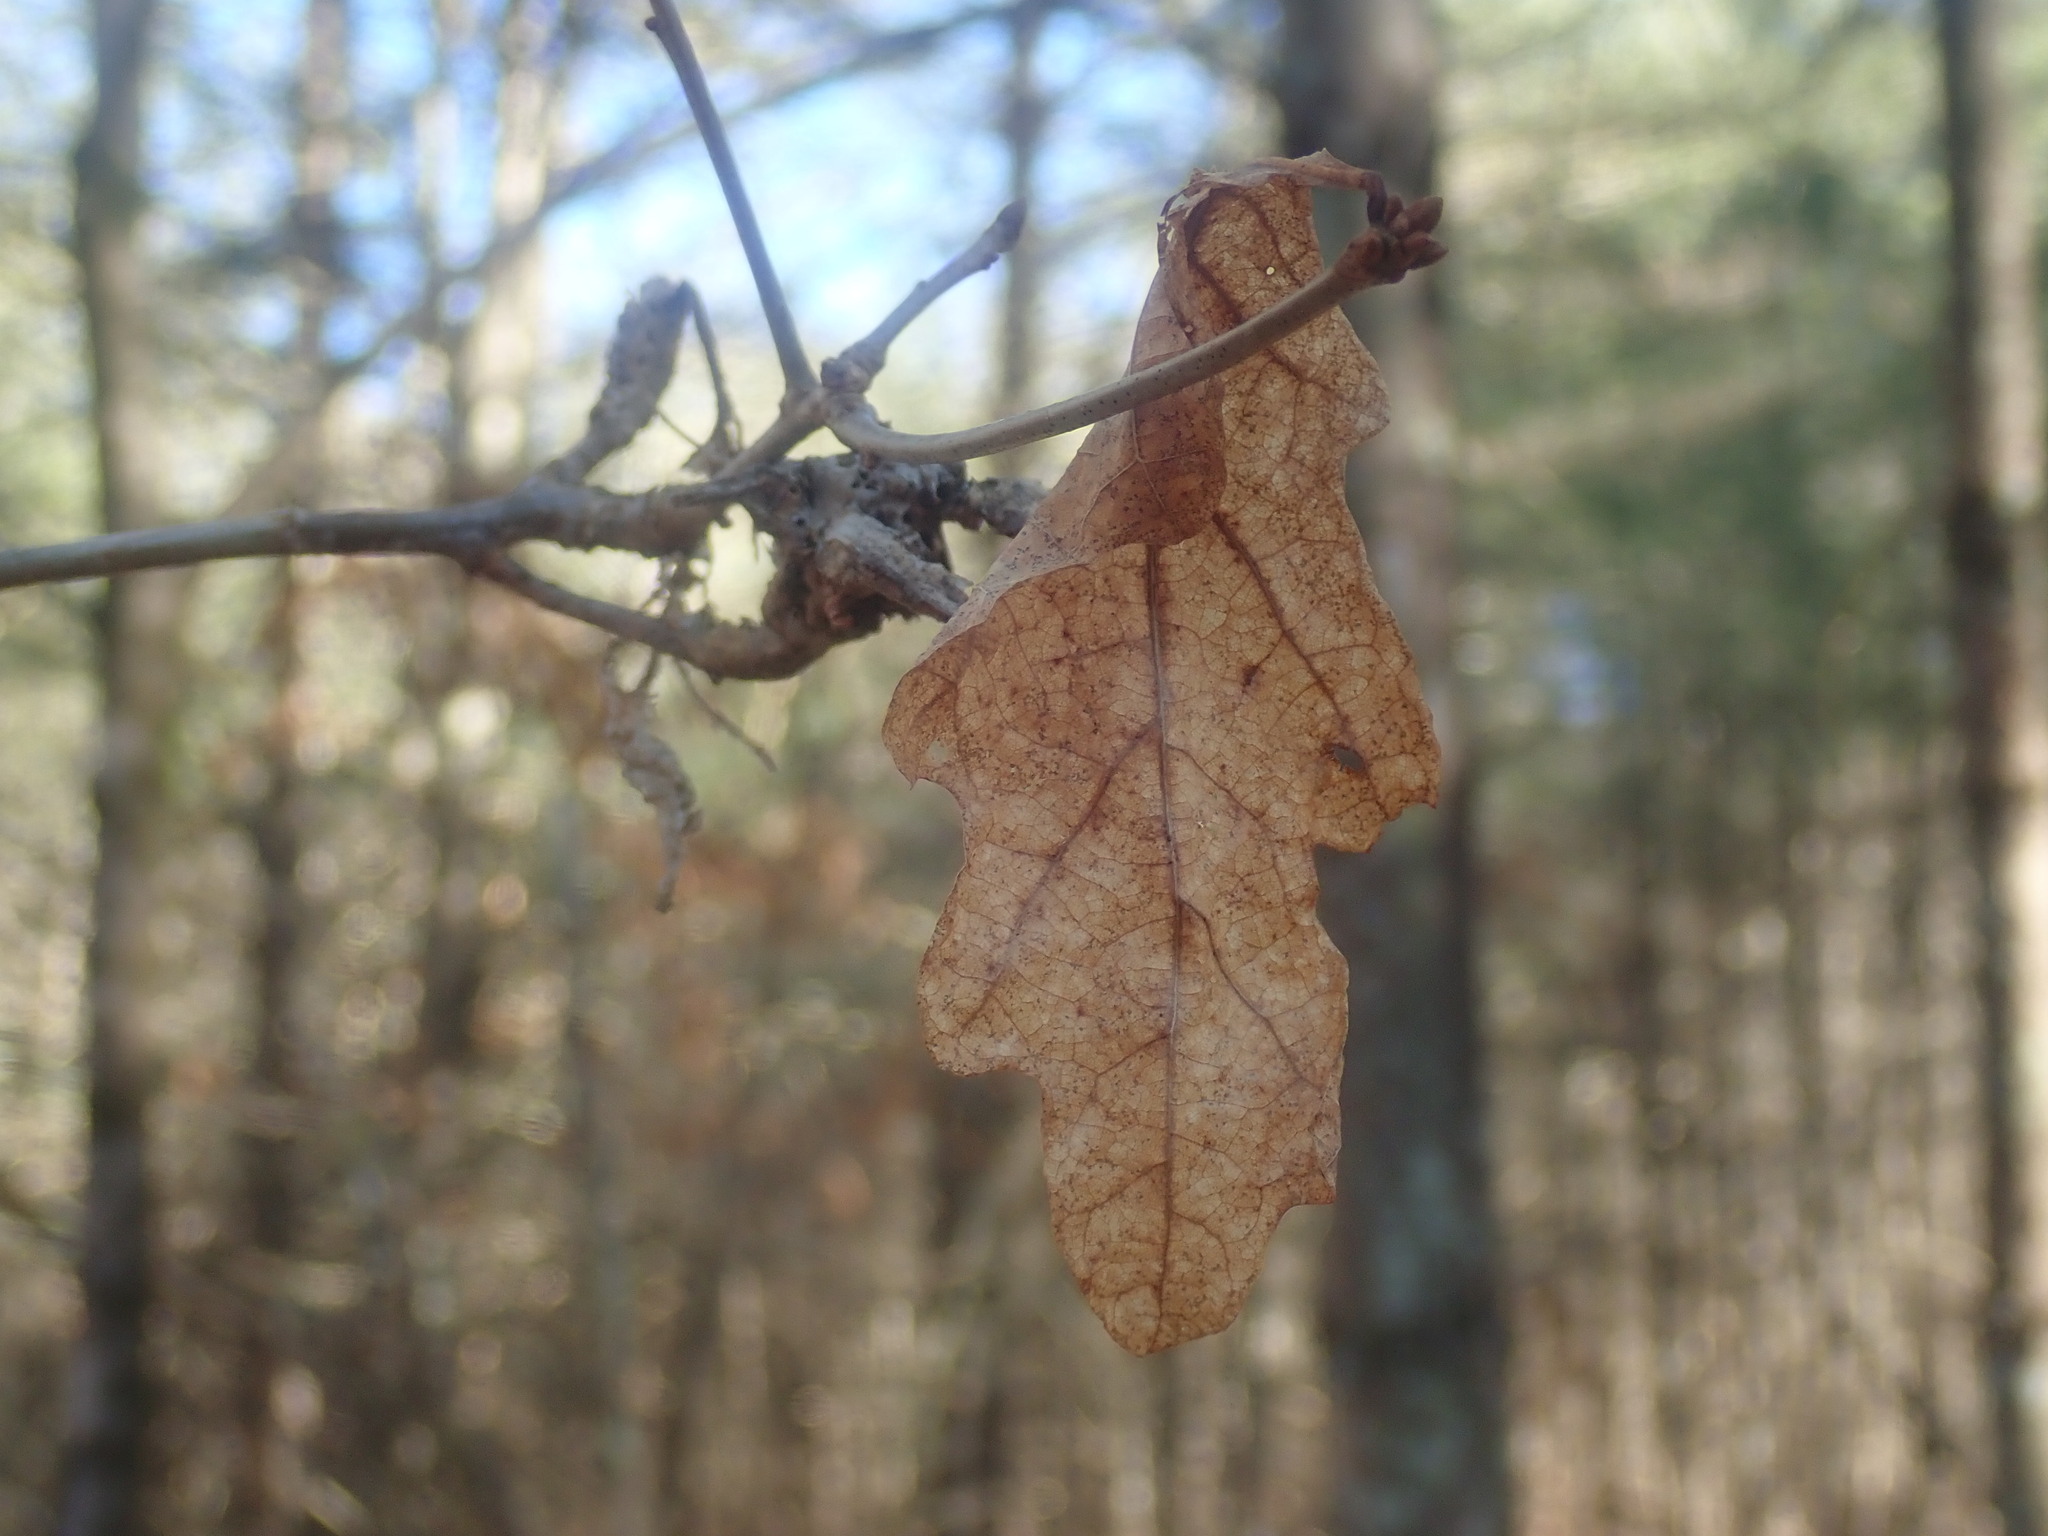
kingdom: Plantae
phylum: Tracheophyta
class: Magnoliopsida
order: Fagales
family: Fagaceae
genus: Quercus
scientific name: Quercus alba
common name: White oak
